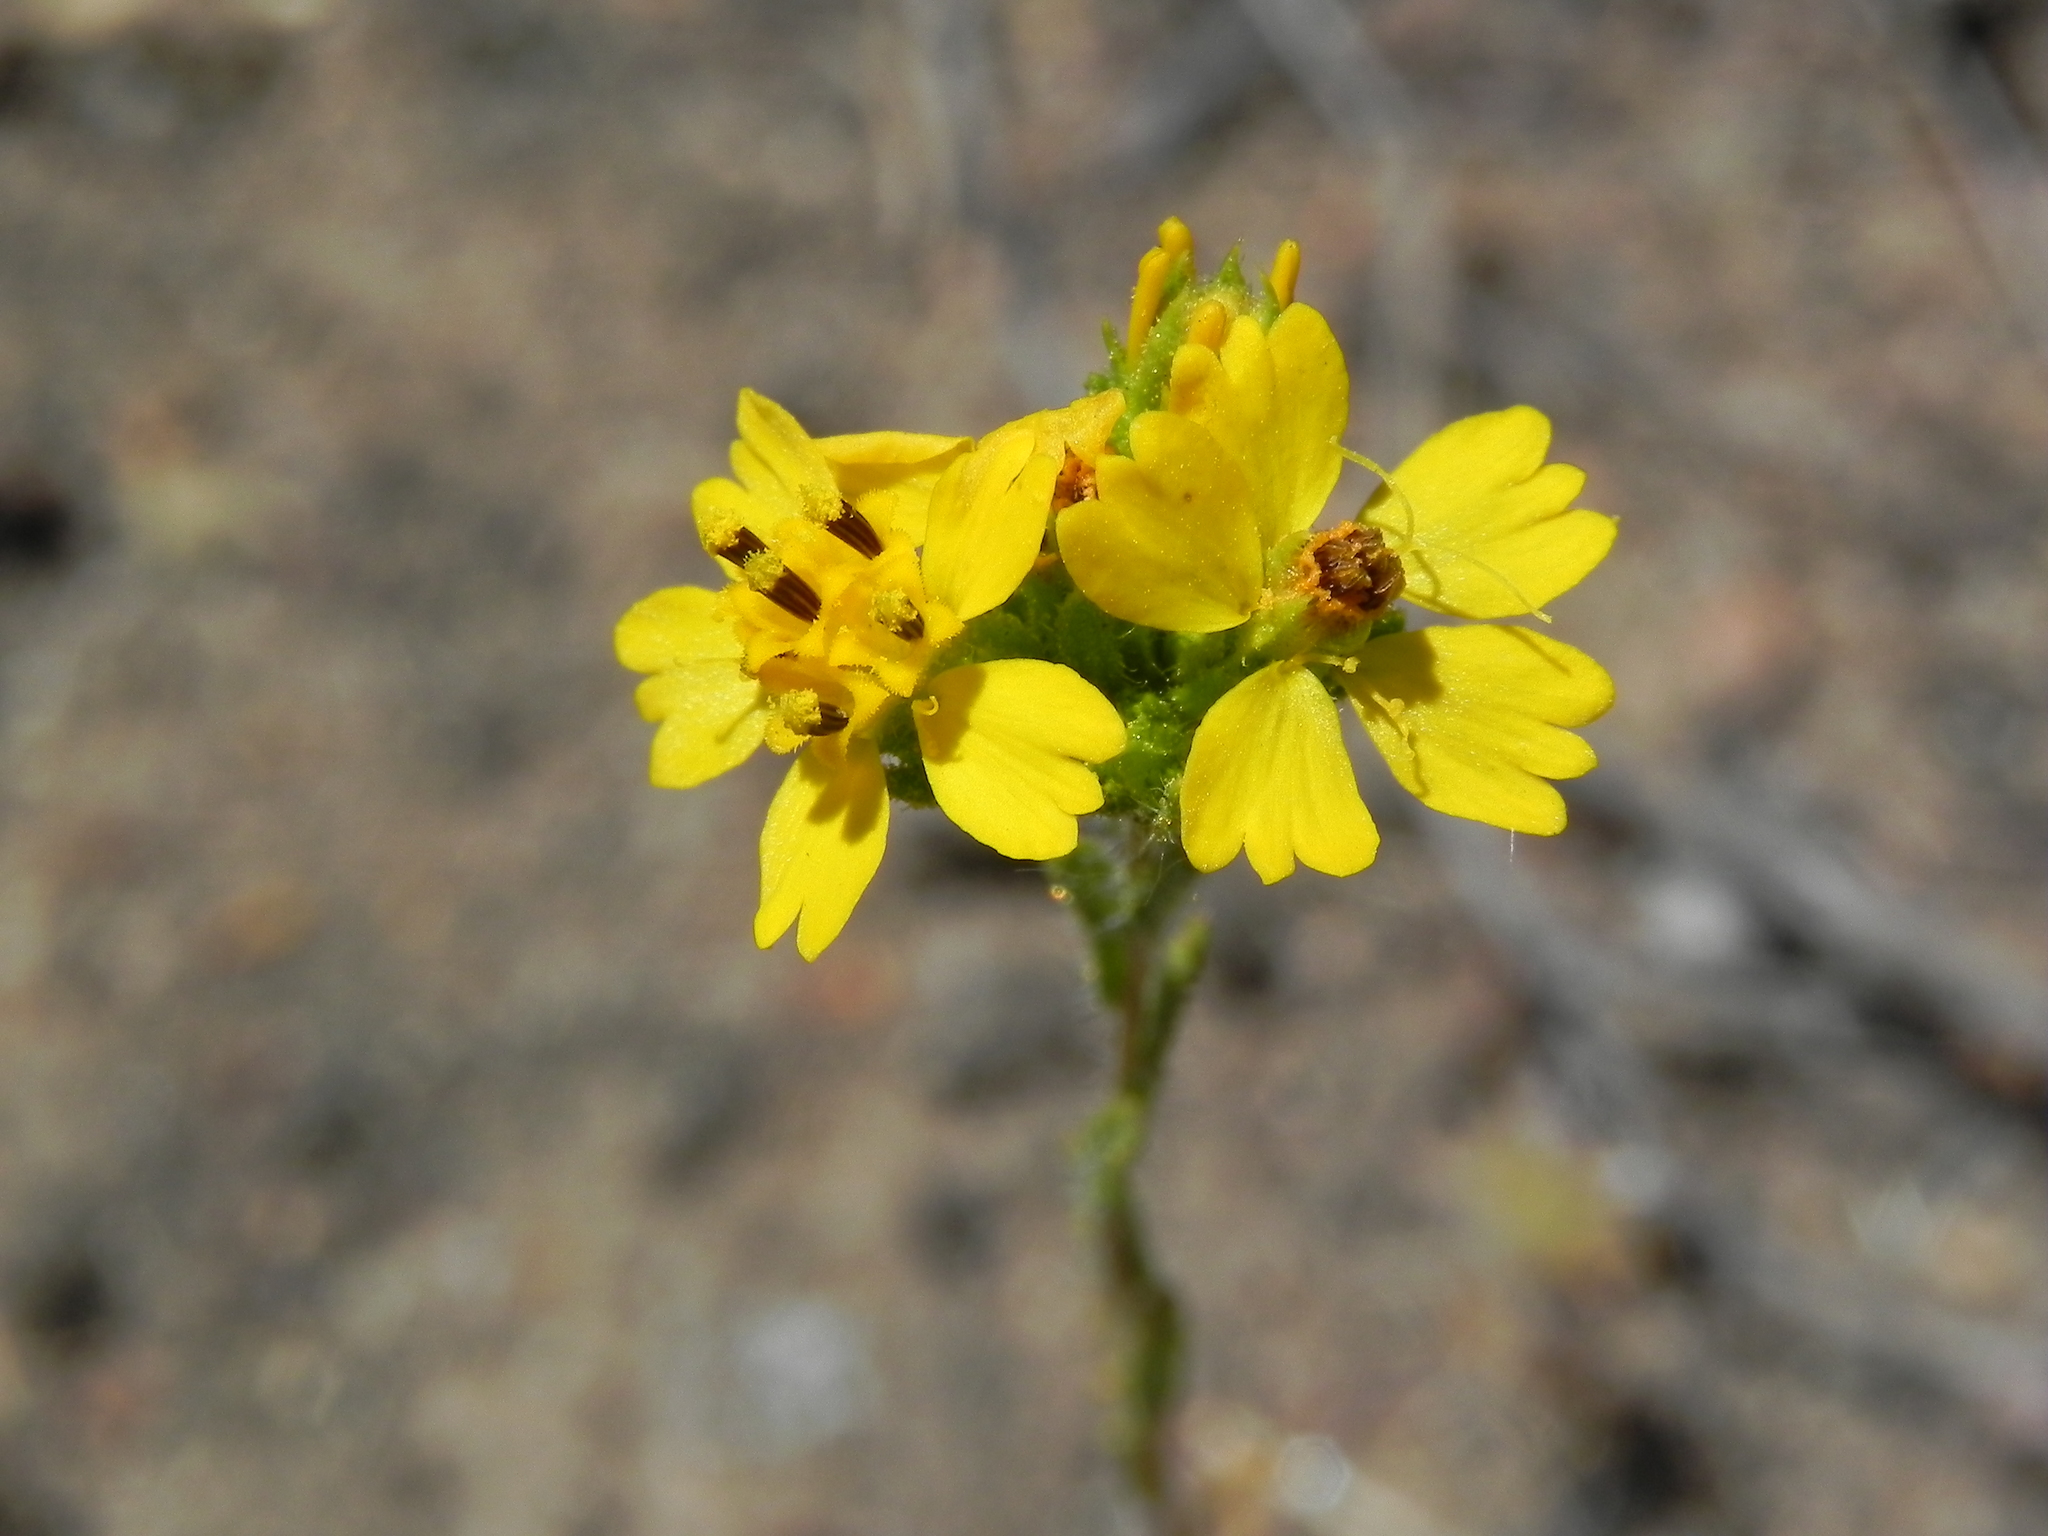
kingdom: Plantae
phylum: Tracheophyta
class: Magnoliopsida
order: Asterales
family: Asteraceae
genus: Deinandra
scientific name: Deinandra fasciculata
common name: Clustered tarweed
